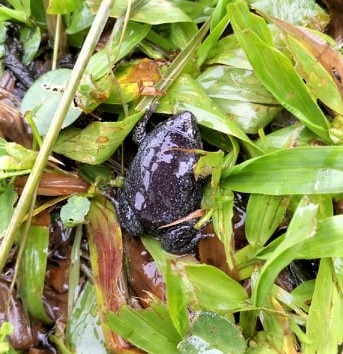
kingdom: Animalia
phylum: Chordata
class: Amphibia
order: Anura
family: Microhylidae
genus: Ctenophryne
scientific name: Ctenophryne geayi
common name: Brown egg frog
